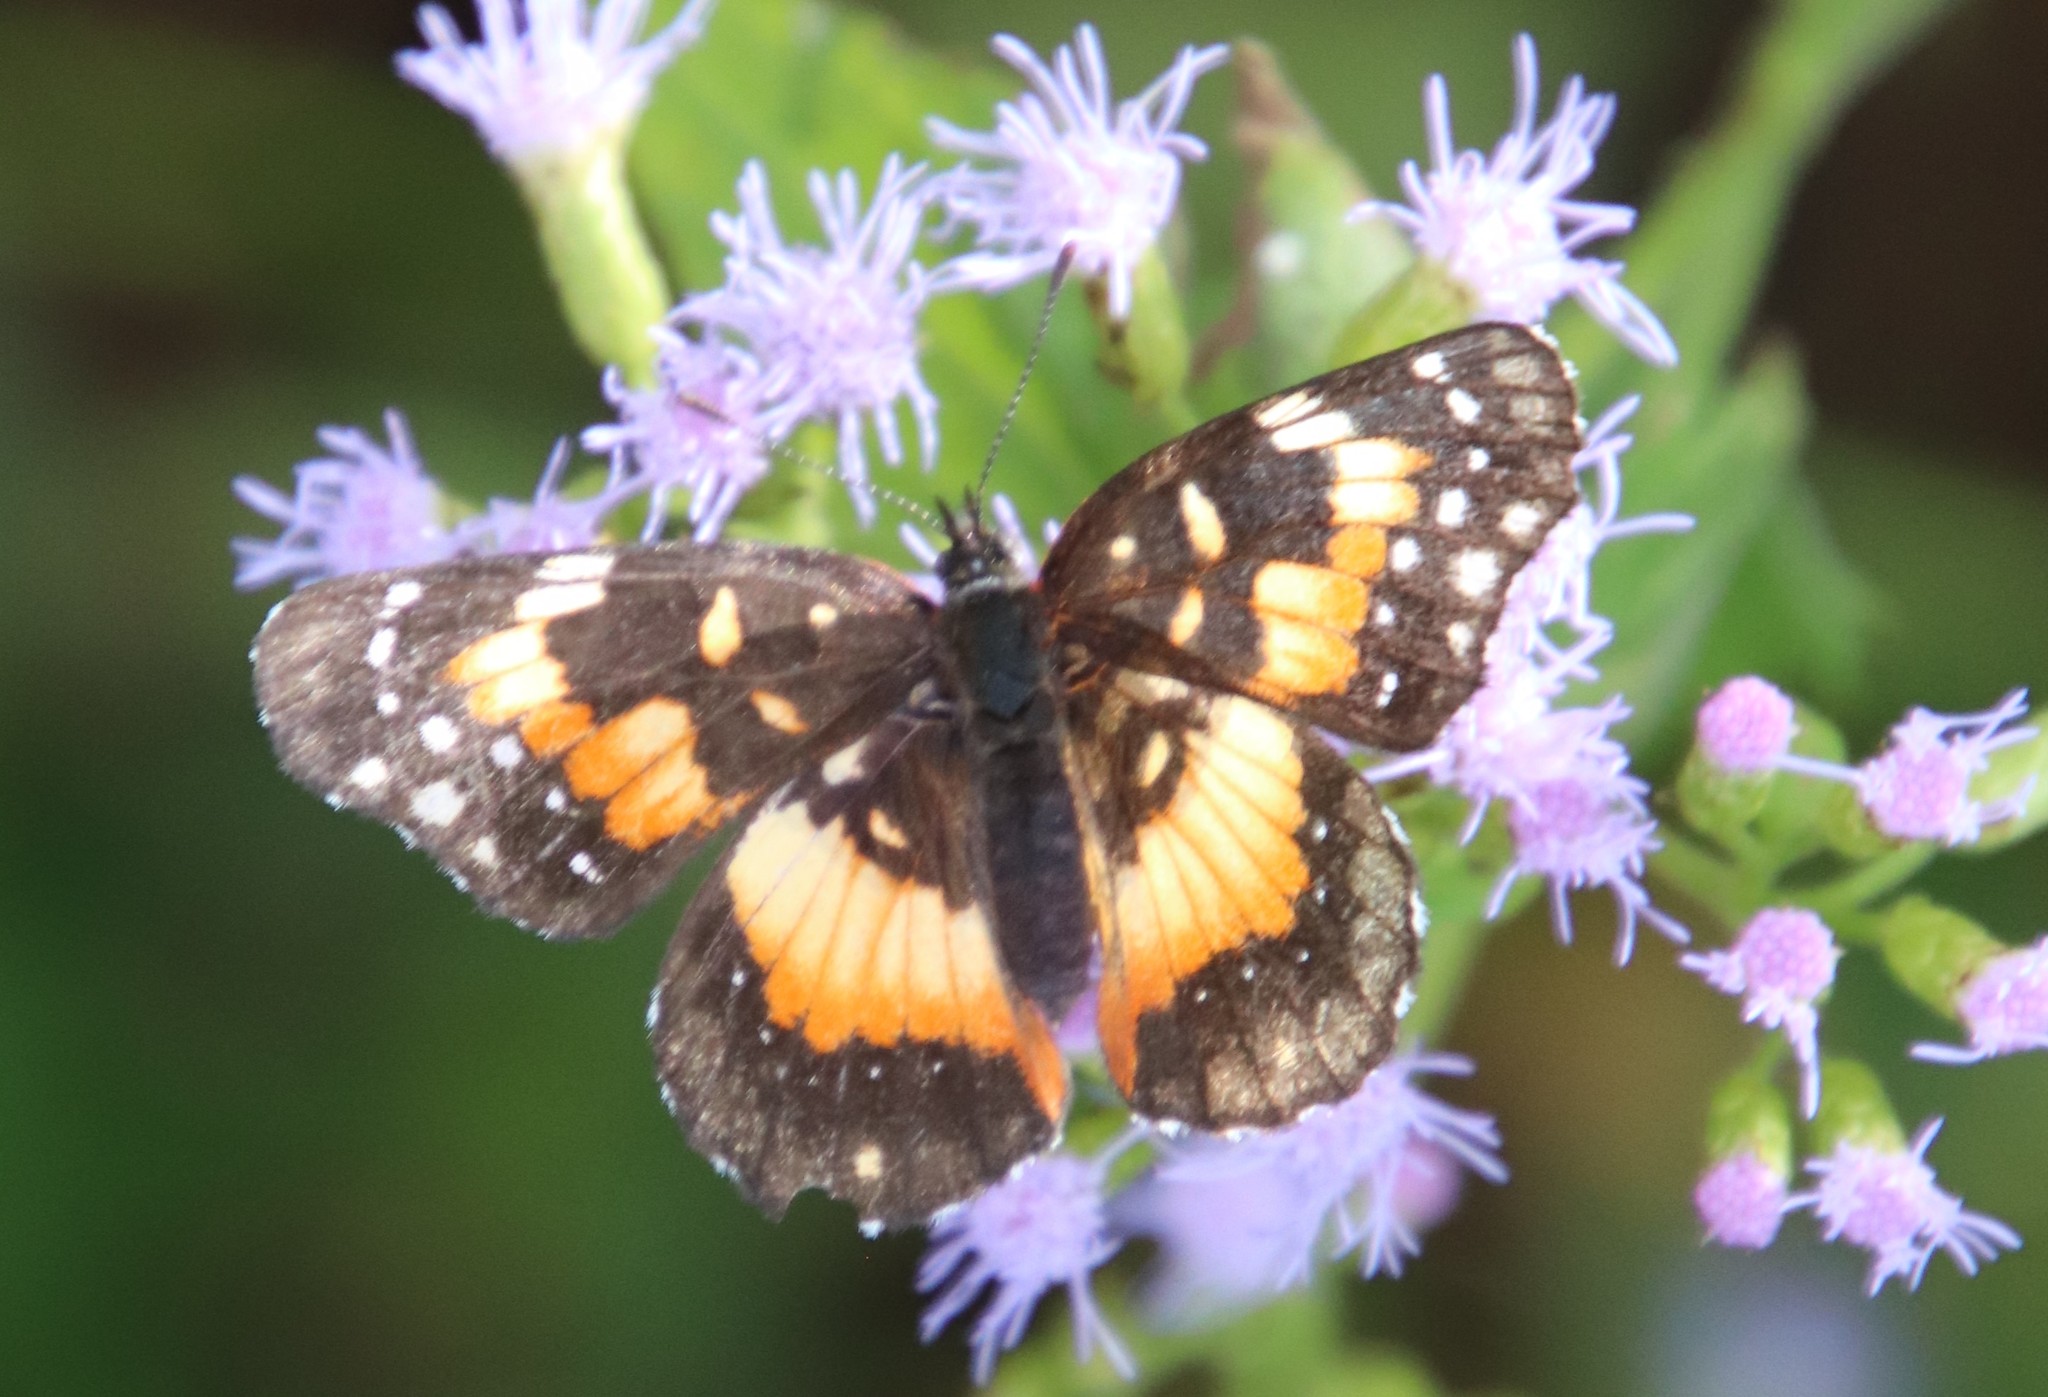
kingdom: Animalia
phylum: Arthropoda
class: Insecta
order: Lepidoptera
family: Nymphalidae
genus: Chlosyne
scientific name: Chlosyne lacinia
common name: Bordered patch
